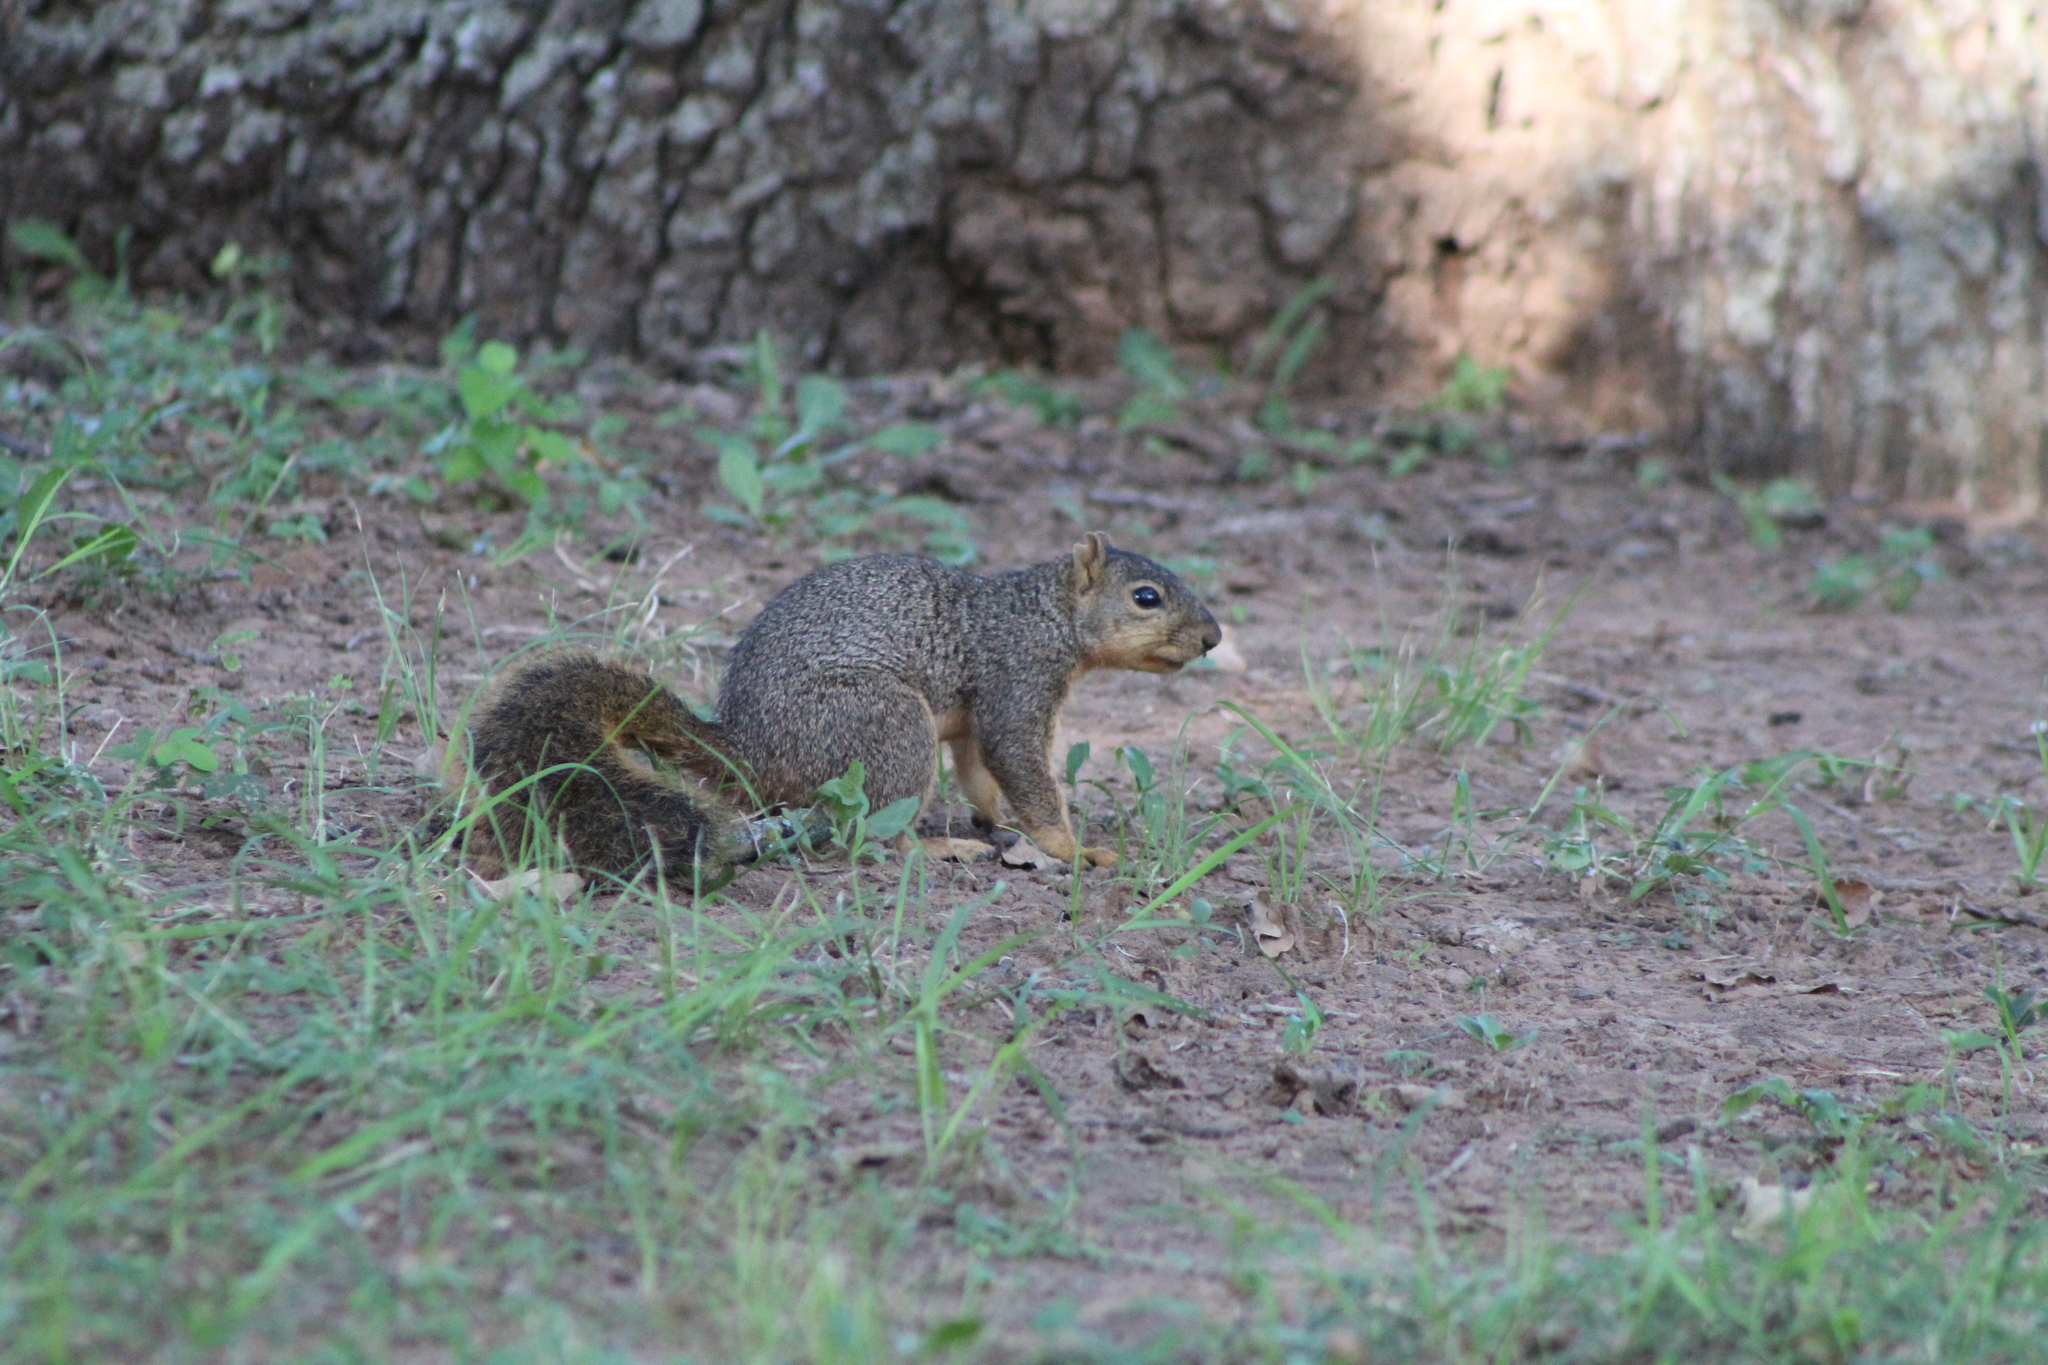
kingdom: Animalia
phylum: Chordata
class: Mammalia
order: Rodentia
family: Sciuridae
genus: Sciurus
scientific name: Sciurus niger
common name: Fox squirrel
